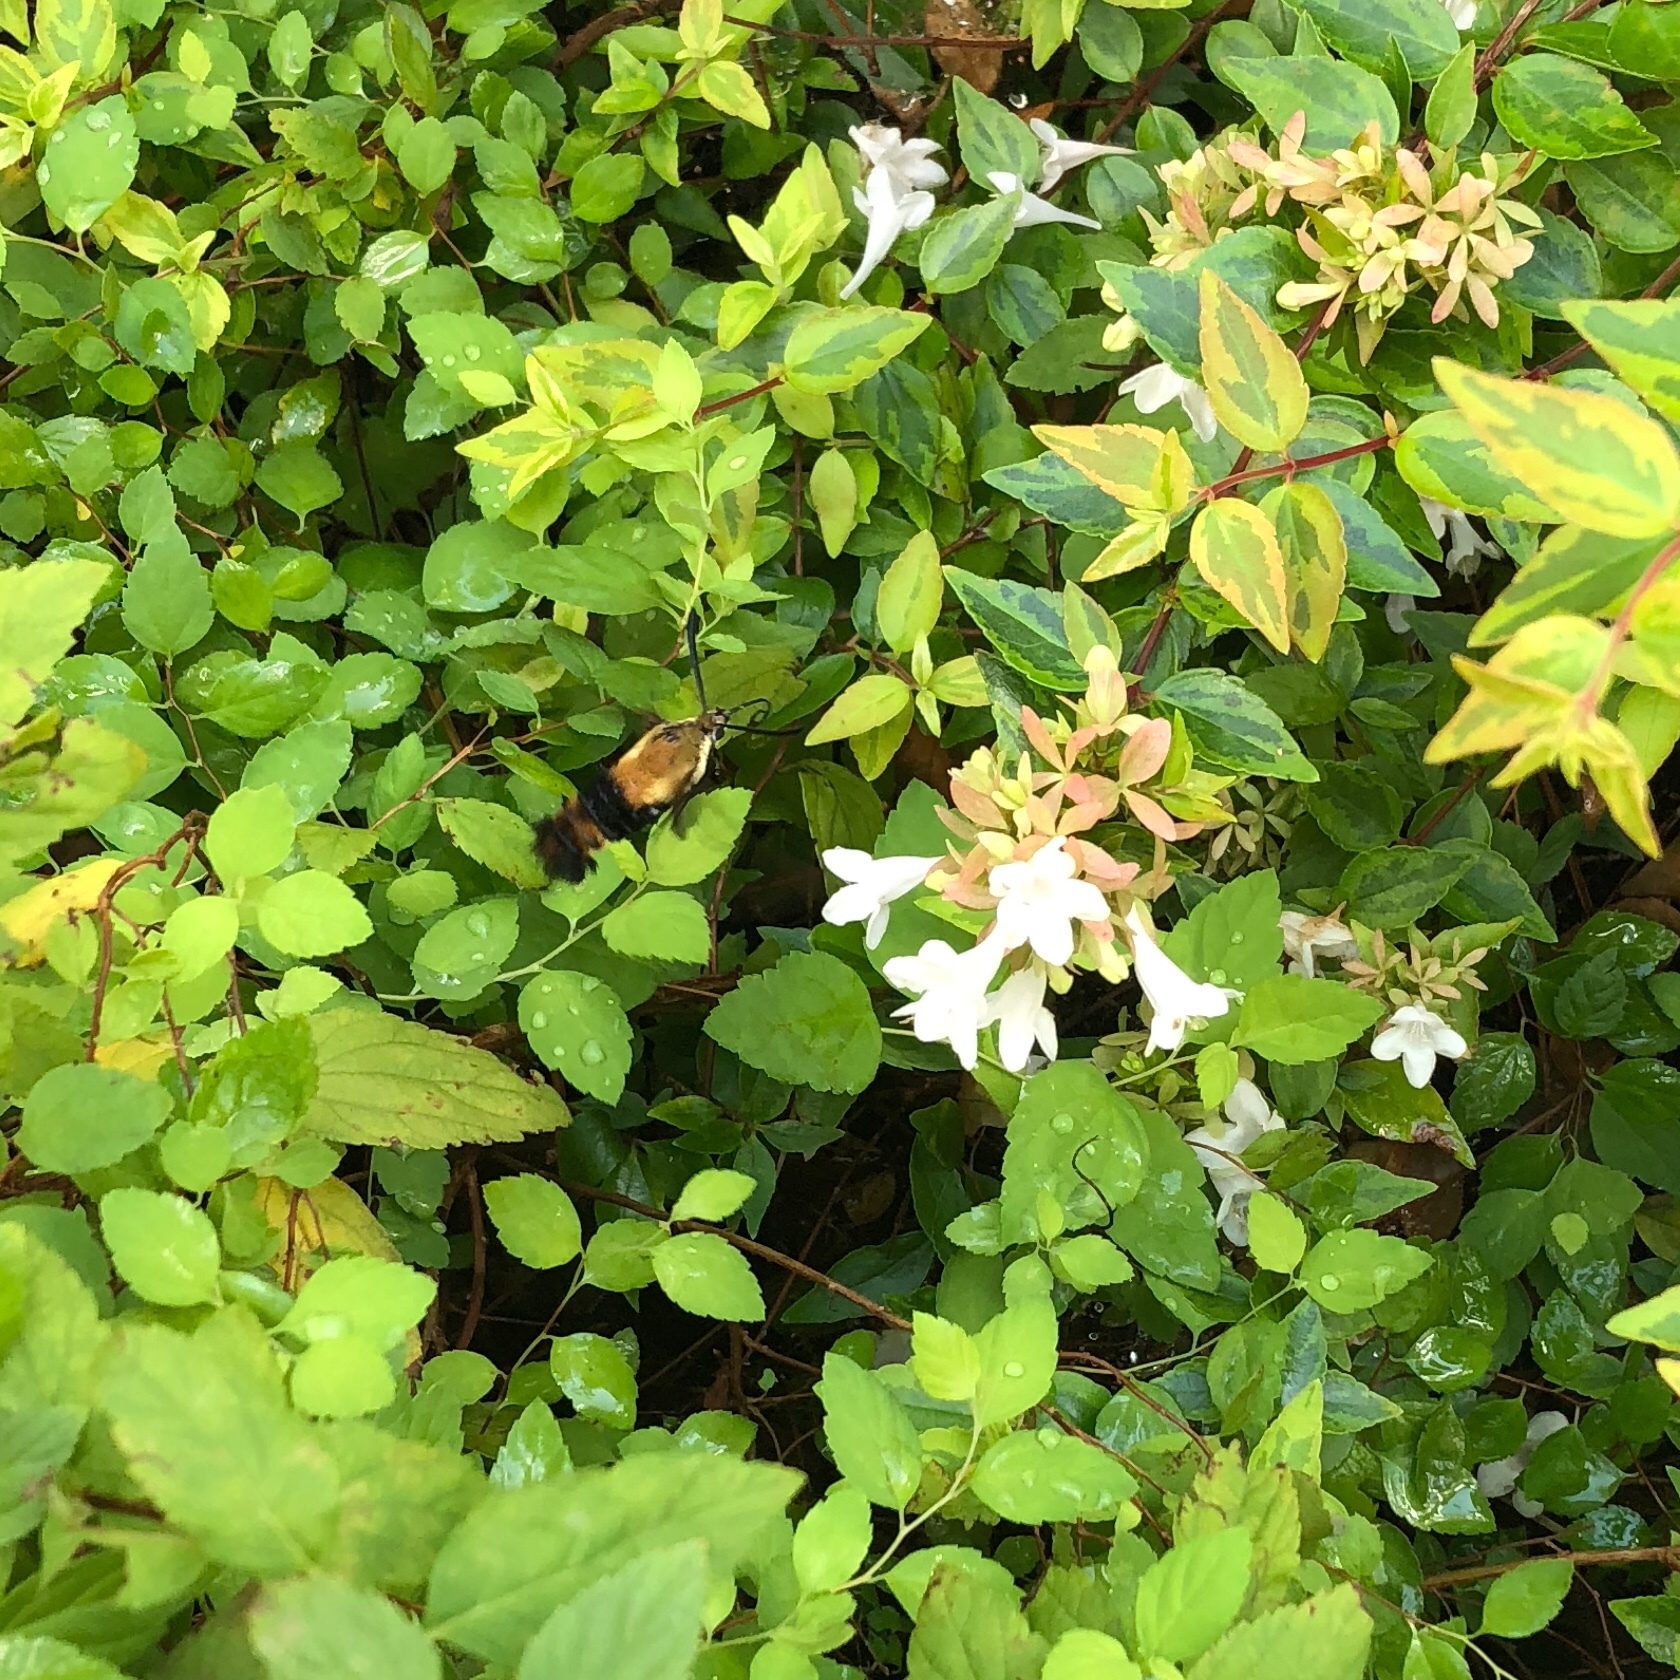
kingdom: Animalia
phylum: Arthropoda
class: Insecta
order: Lepidoptera
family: Sphingidae
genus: Hemaris
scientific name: Hemaris diffinis
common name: Bumblebee moth
